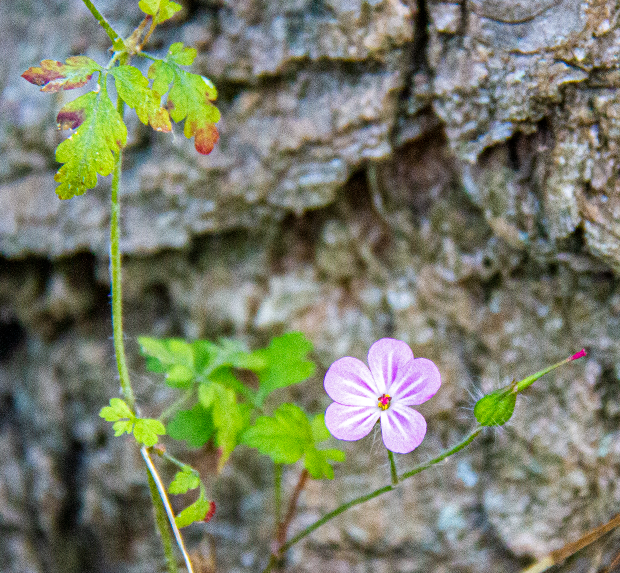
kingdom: Plantae
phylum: Tracheophyta
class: Magnoliopsida
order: Geraniales
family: Geraniaceae
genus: Geranium
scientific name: Geranium robertianum
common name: Herb-robert
